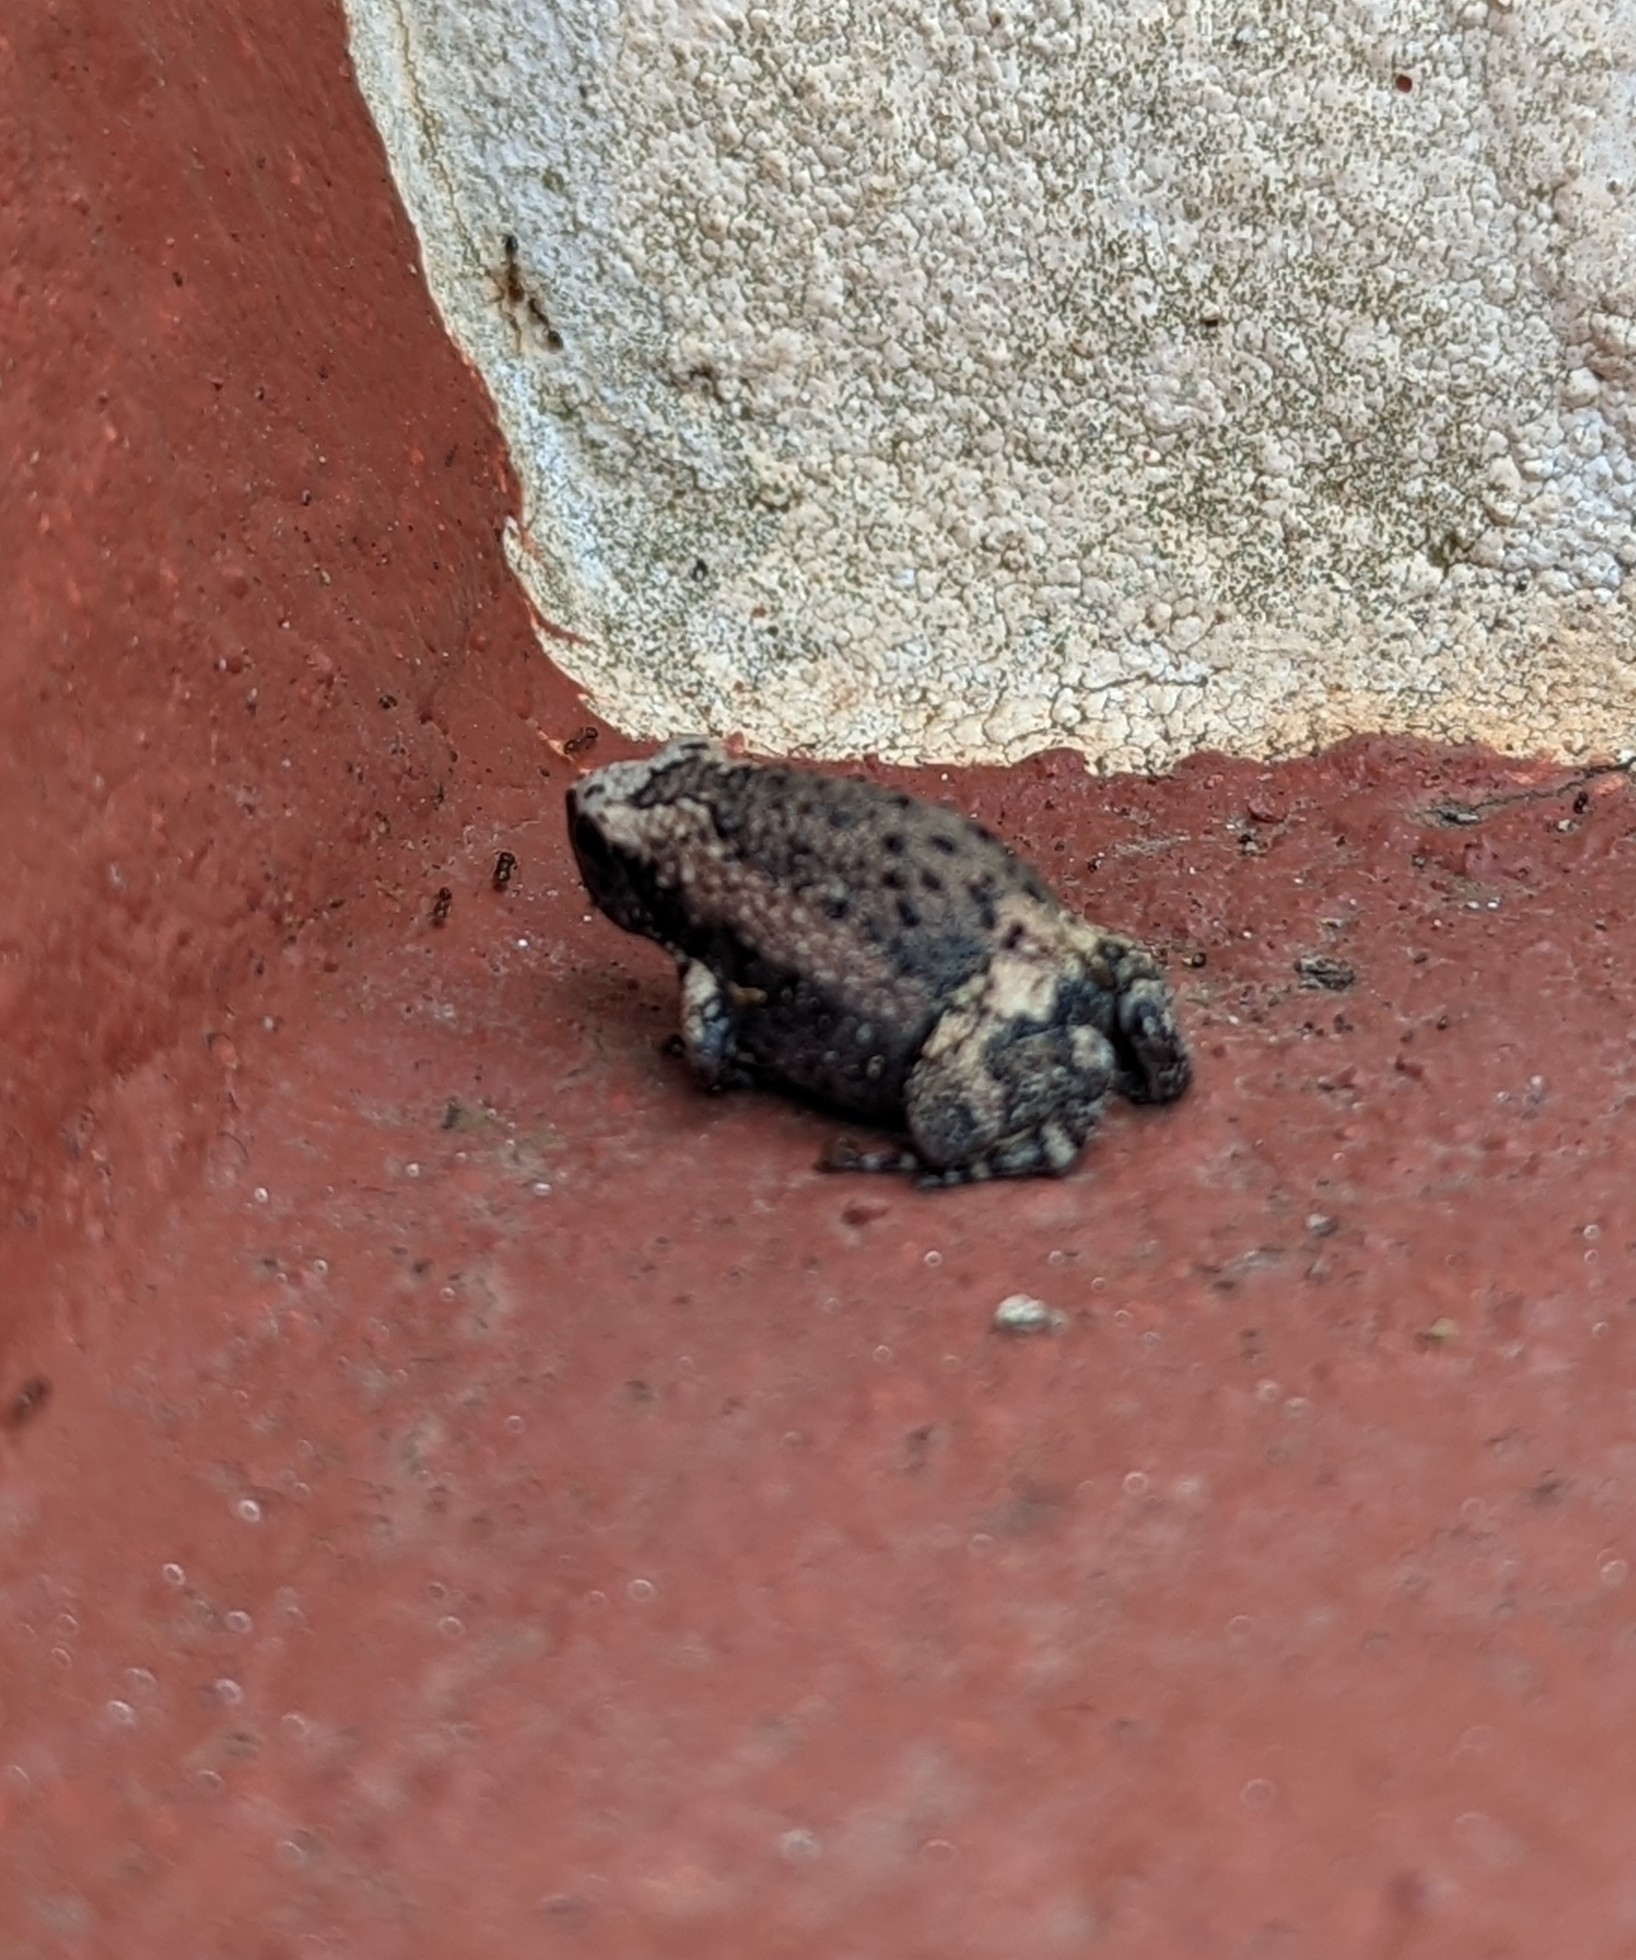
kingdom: Animalia
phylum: Chordata
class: Amphibia
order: Anura
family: Microhylidae
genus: Kaloula
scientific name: Kaloula pulchra
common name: Common,banded bullfrog
